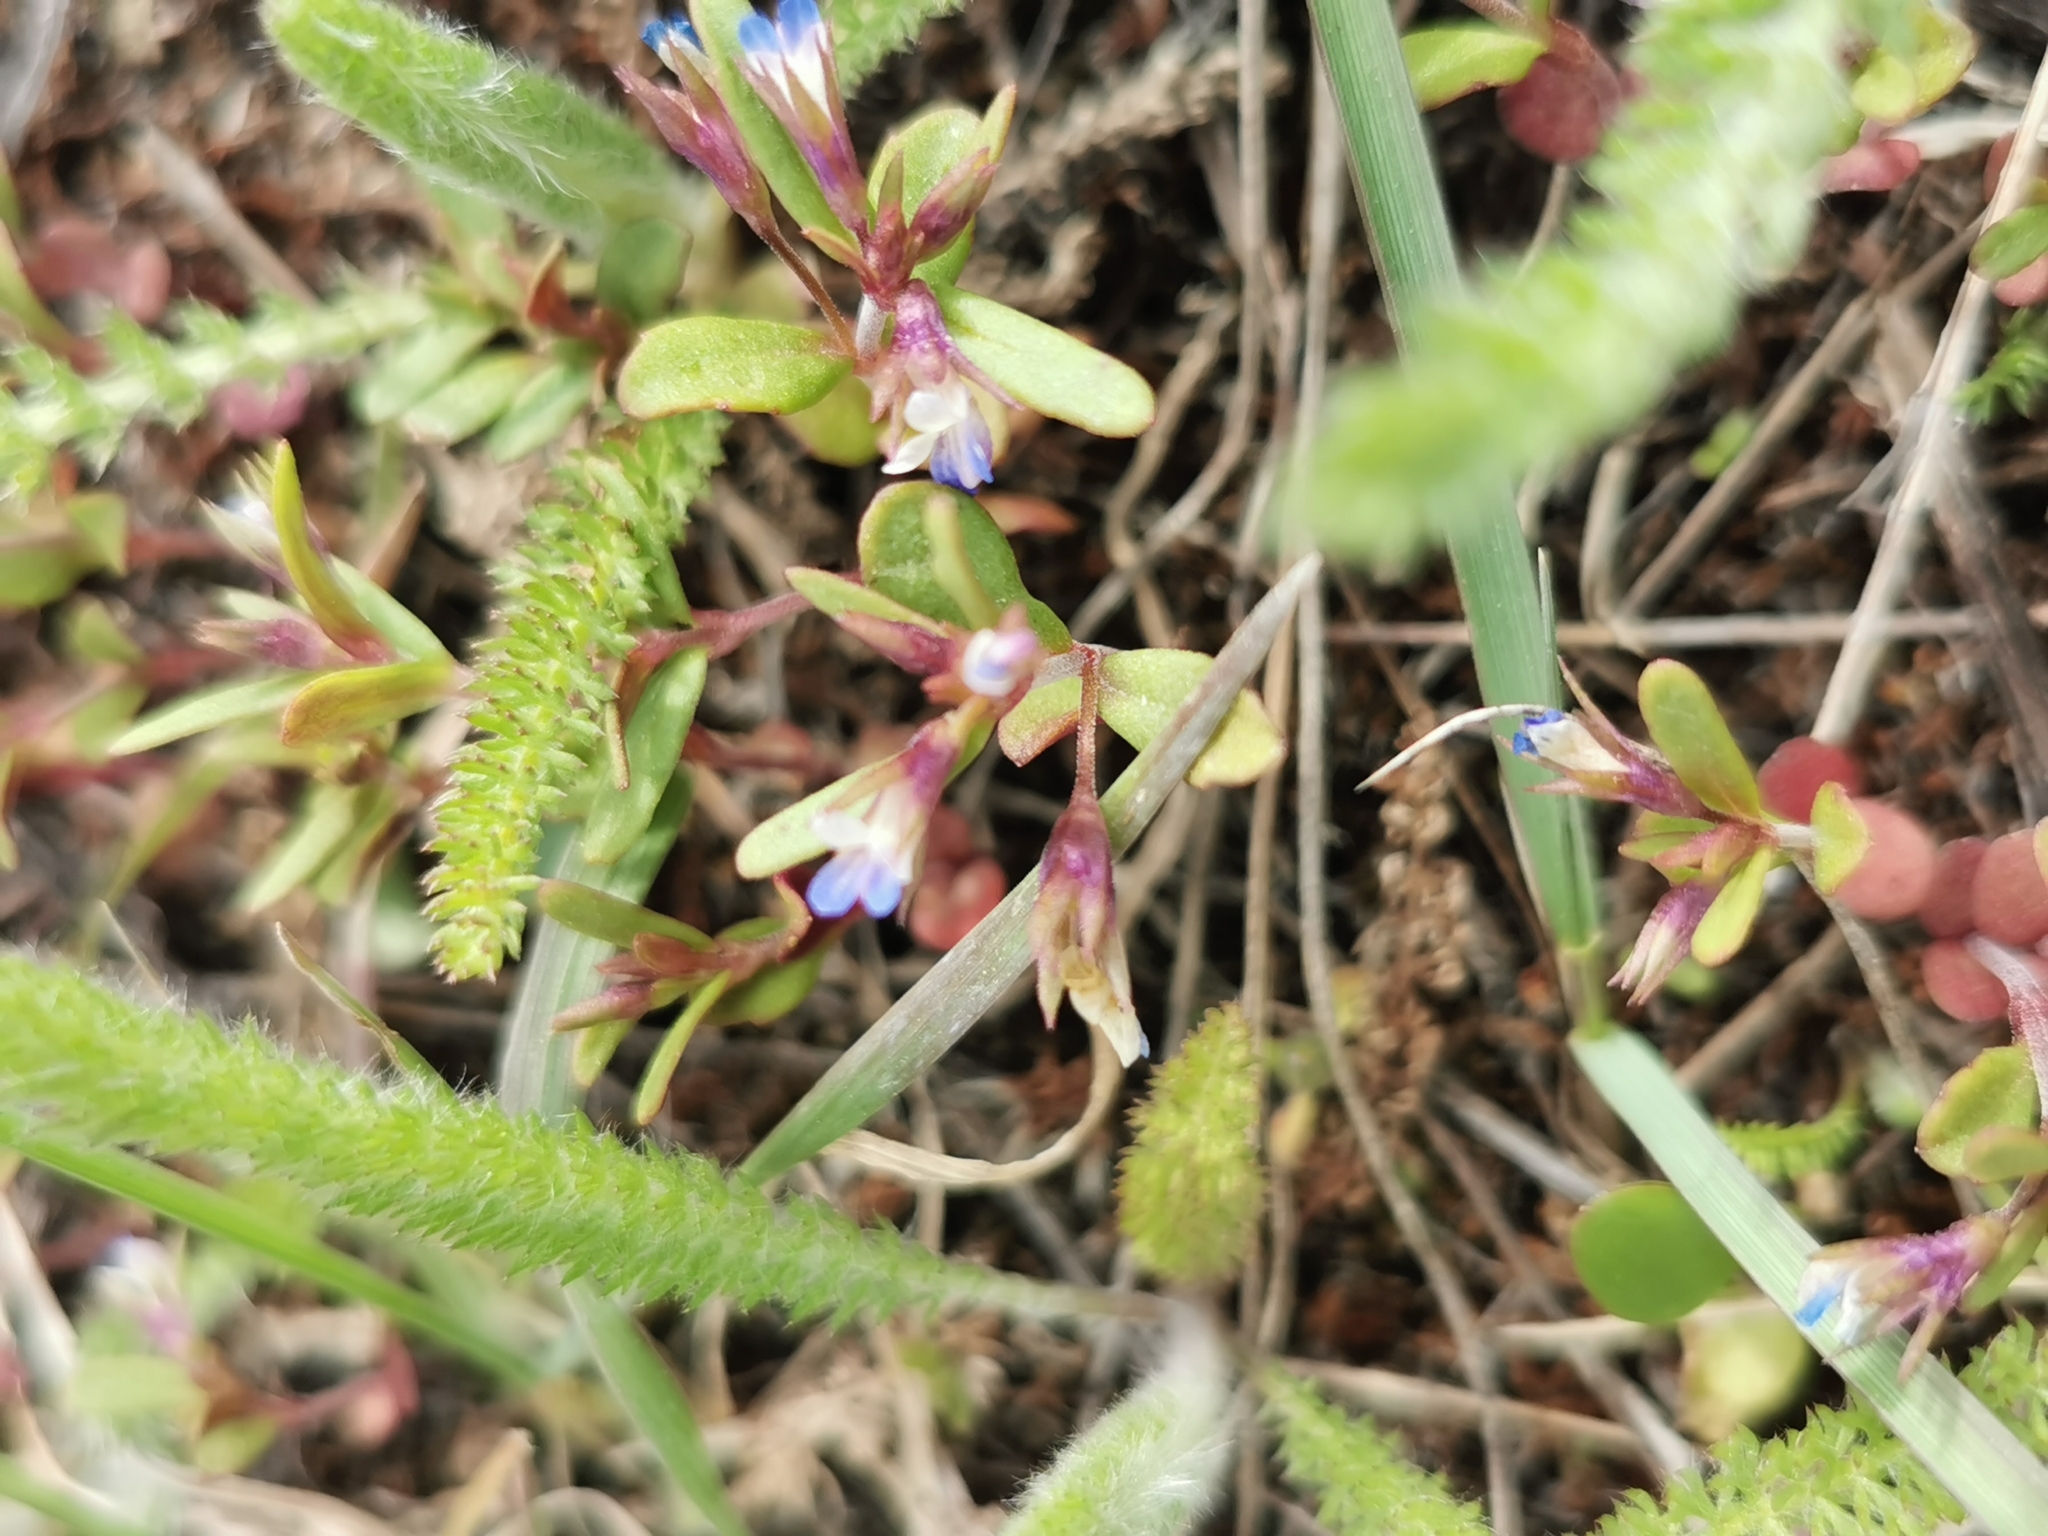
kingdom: Plantae
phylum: Tracheophyta
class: Magnoliopsida
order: Lamiales
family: Plantaginaceae
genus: Collinsia
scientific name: Collinsia parviflora
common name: Blue-lips
